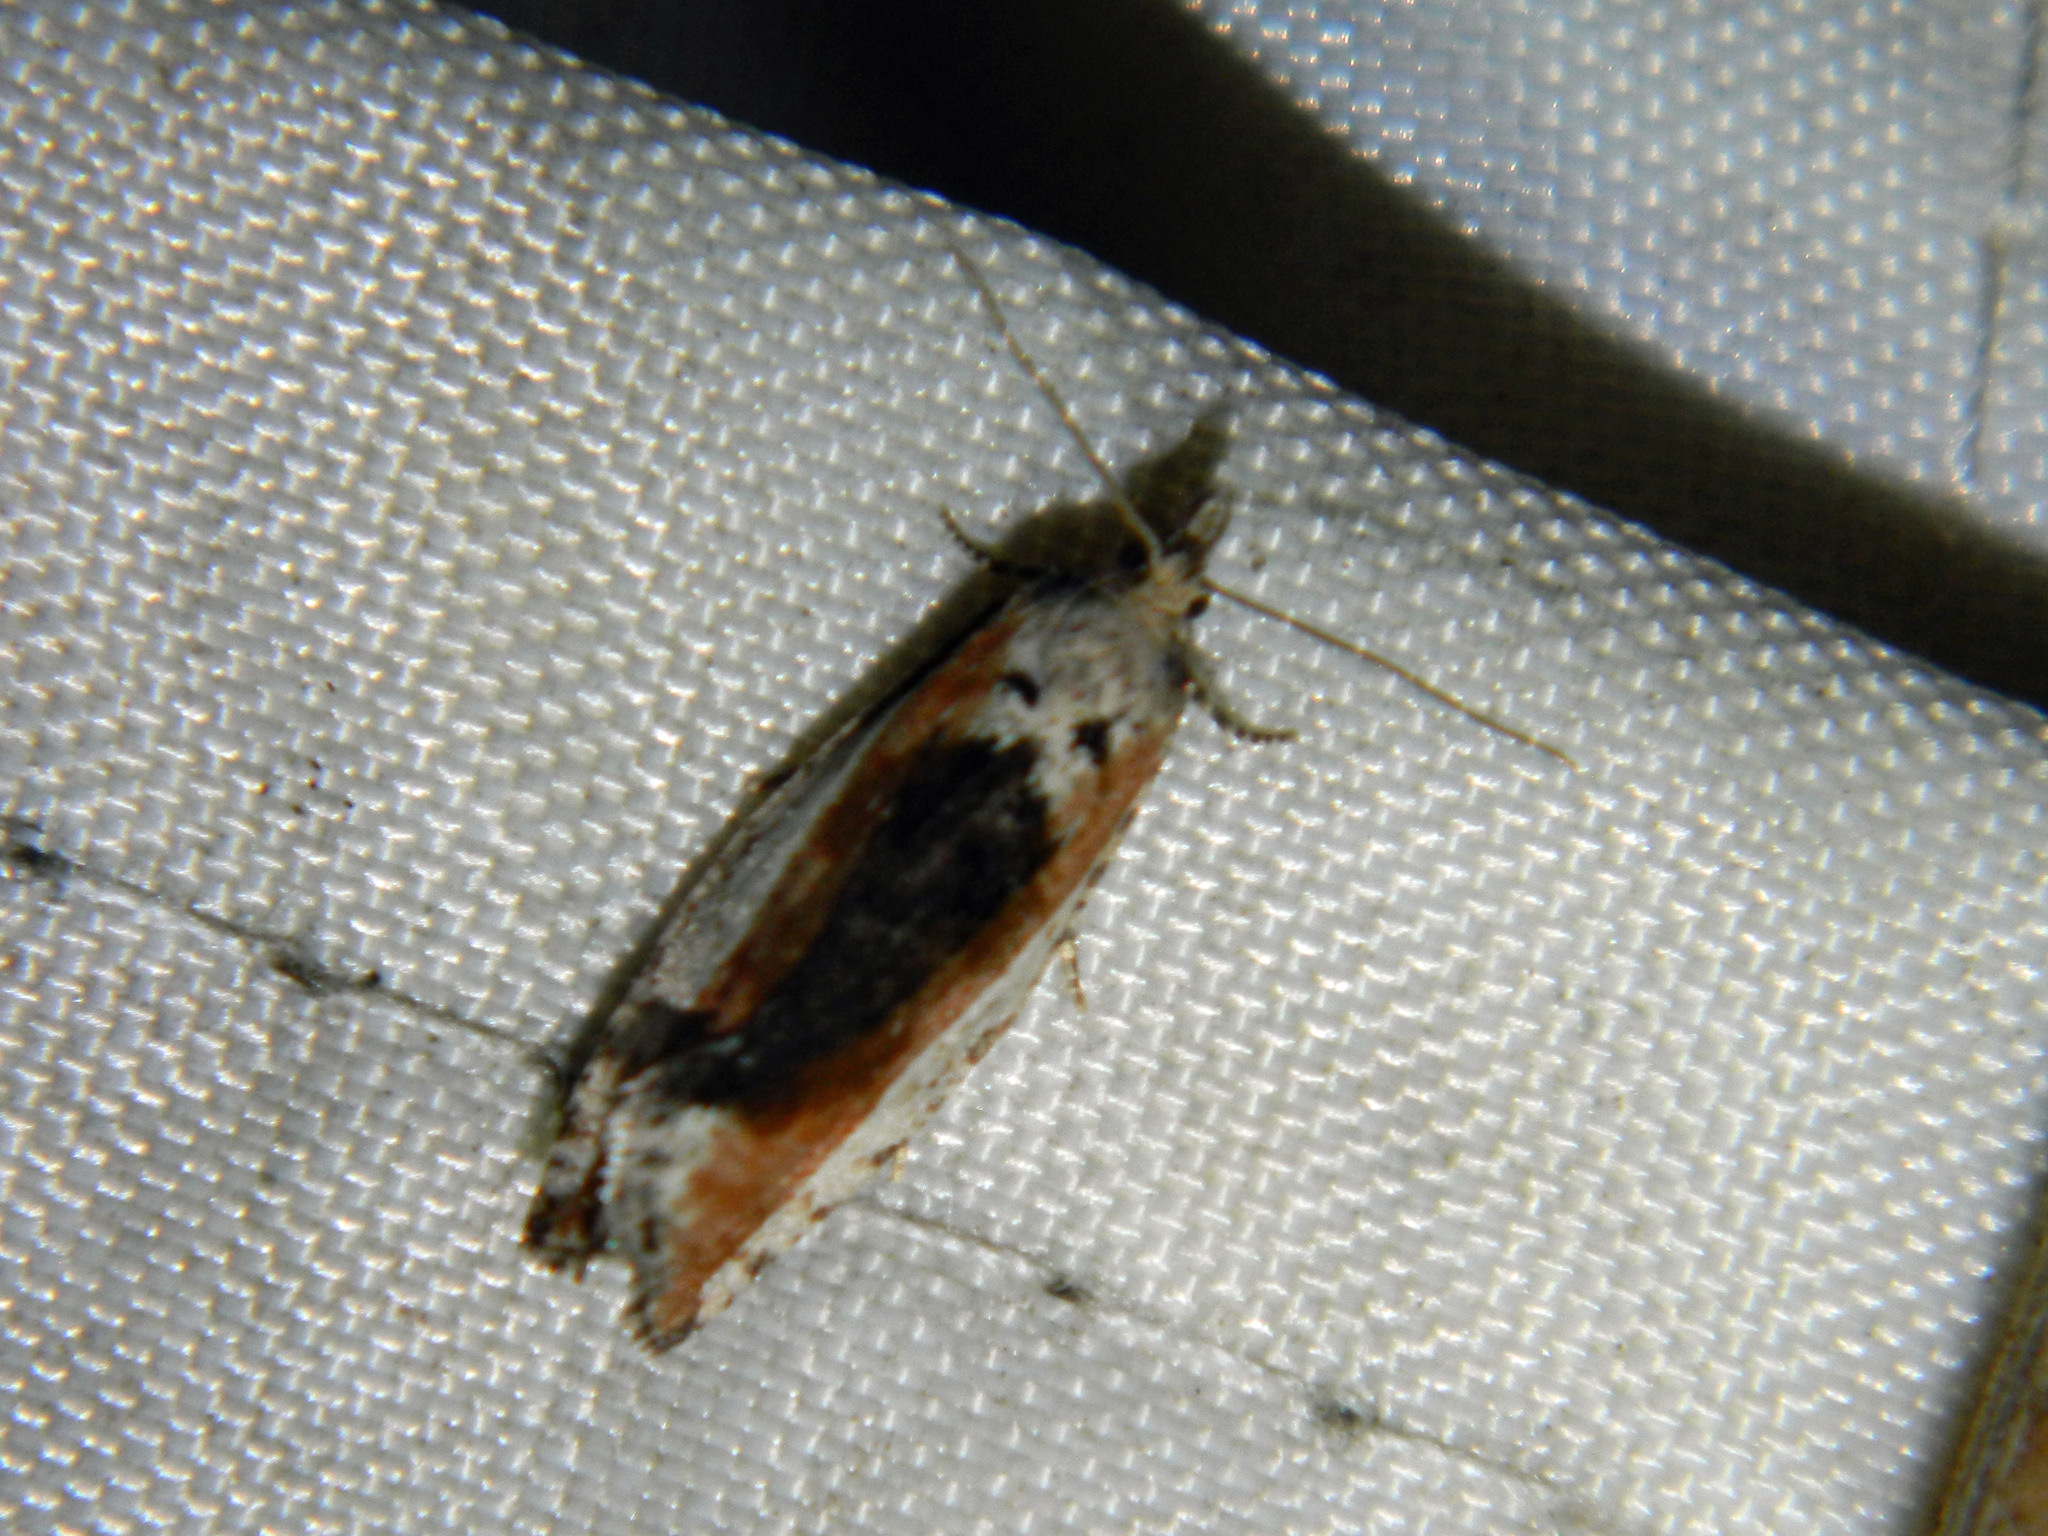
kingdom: Animalia
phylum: Arthropoda
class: Insecta
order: Lepidoptera
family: Tortricidae
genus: Epinotia
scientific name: Epinotia solandriana
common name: Variable bell
